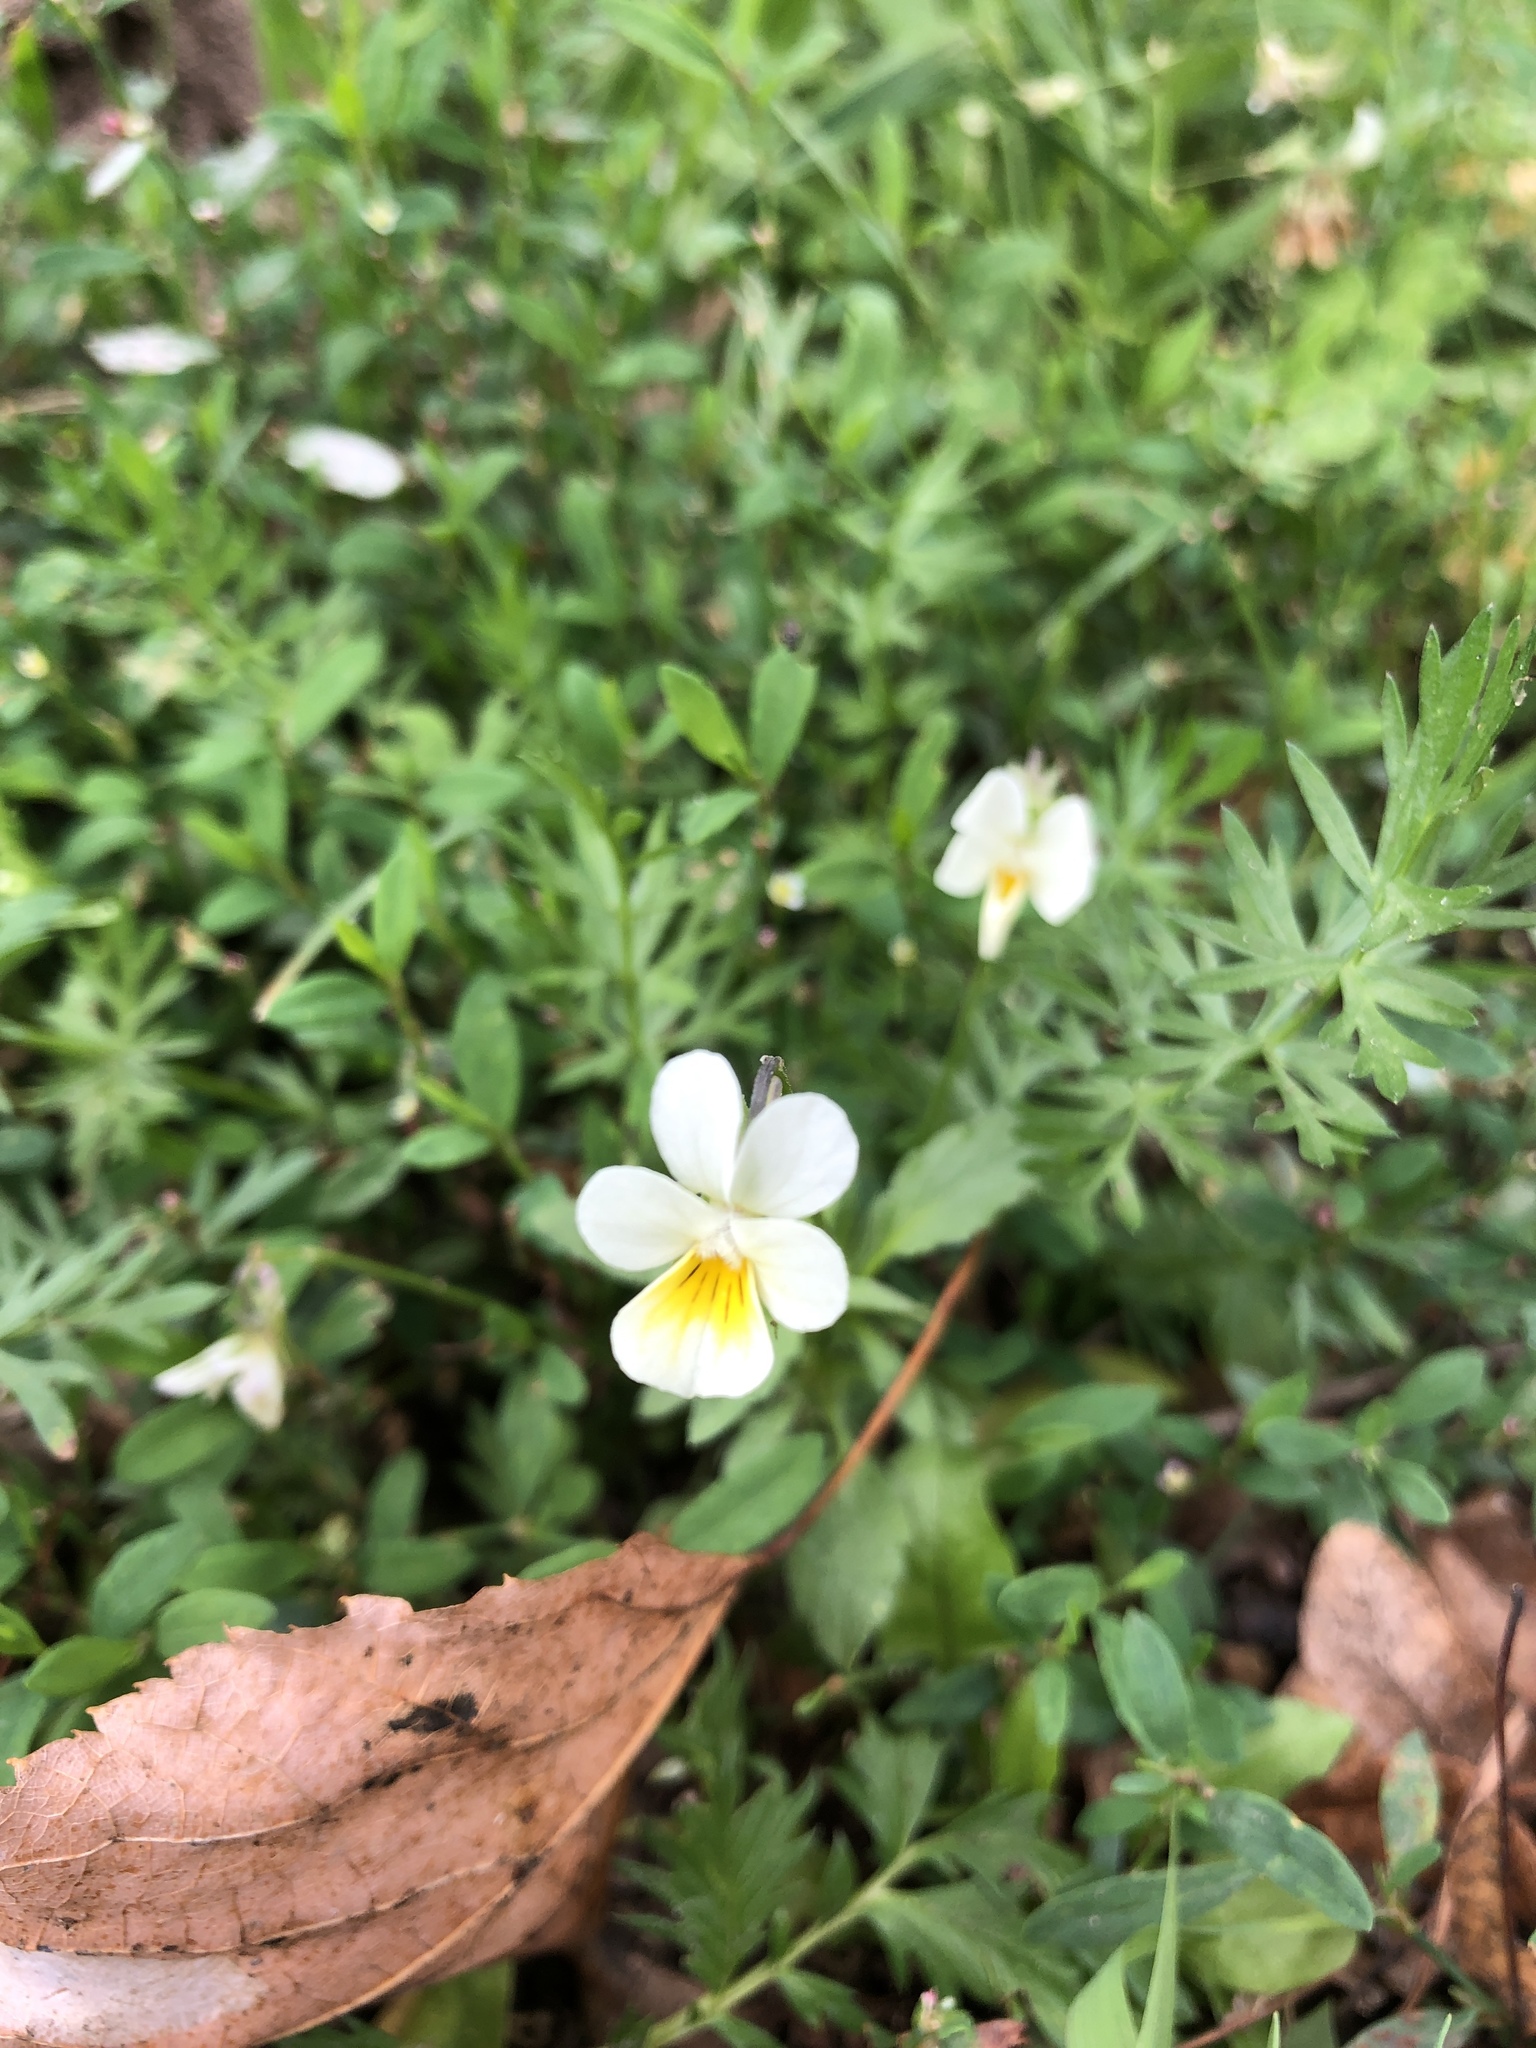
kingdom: Plantae
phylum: Tracheophyta
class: Magnoliopsida
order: Malpighiales
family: Violaceae
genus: Viola
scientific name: Viola arvensis
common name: Field pansy
